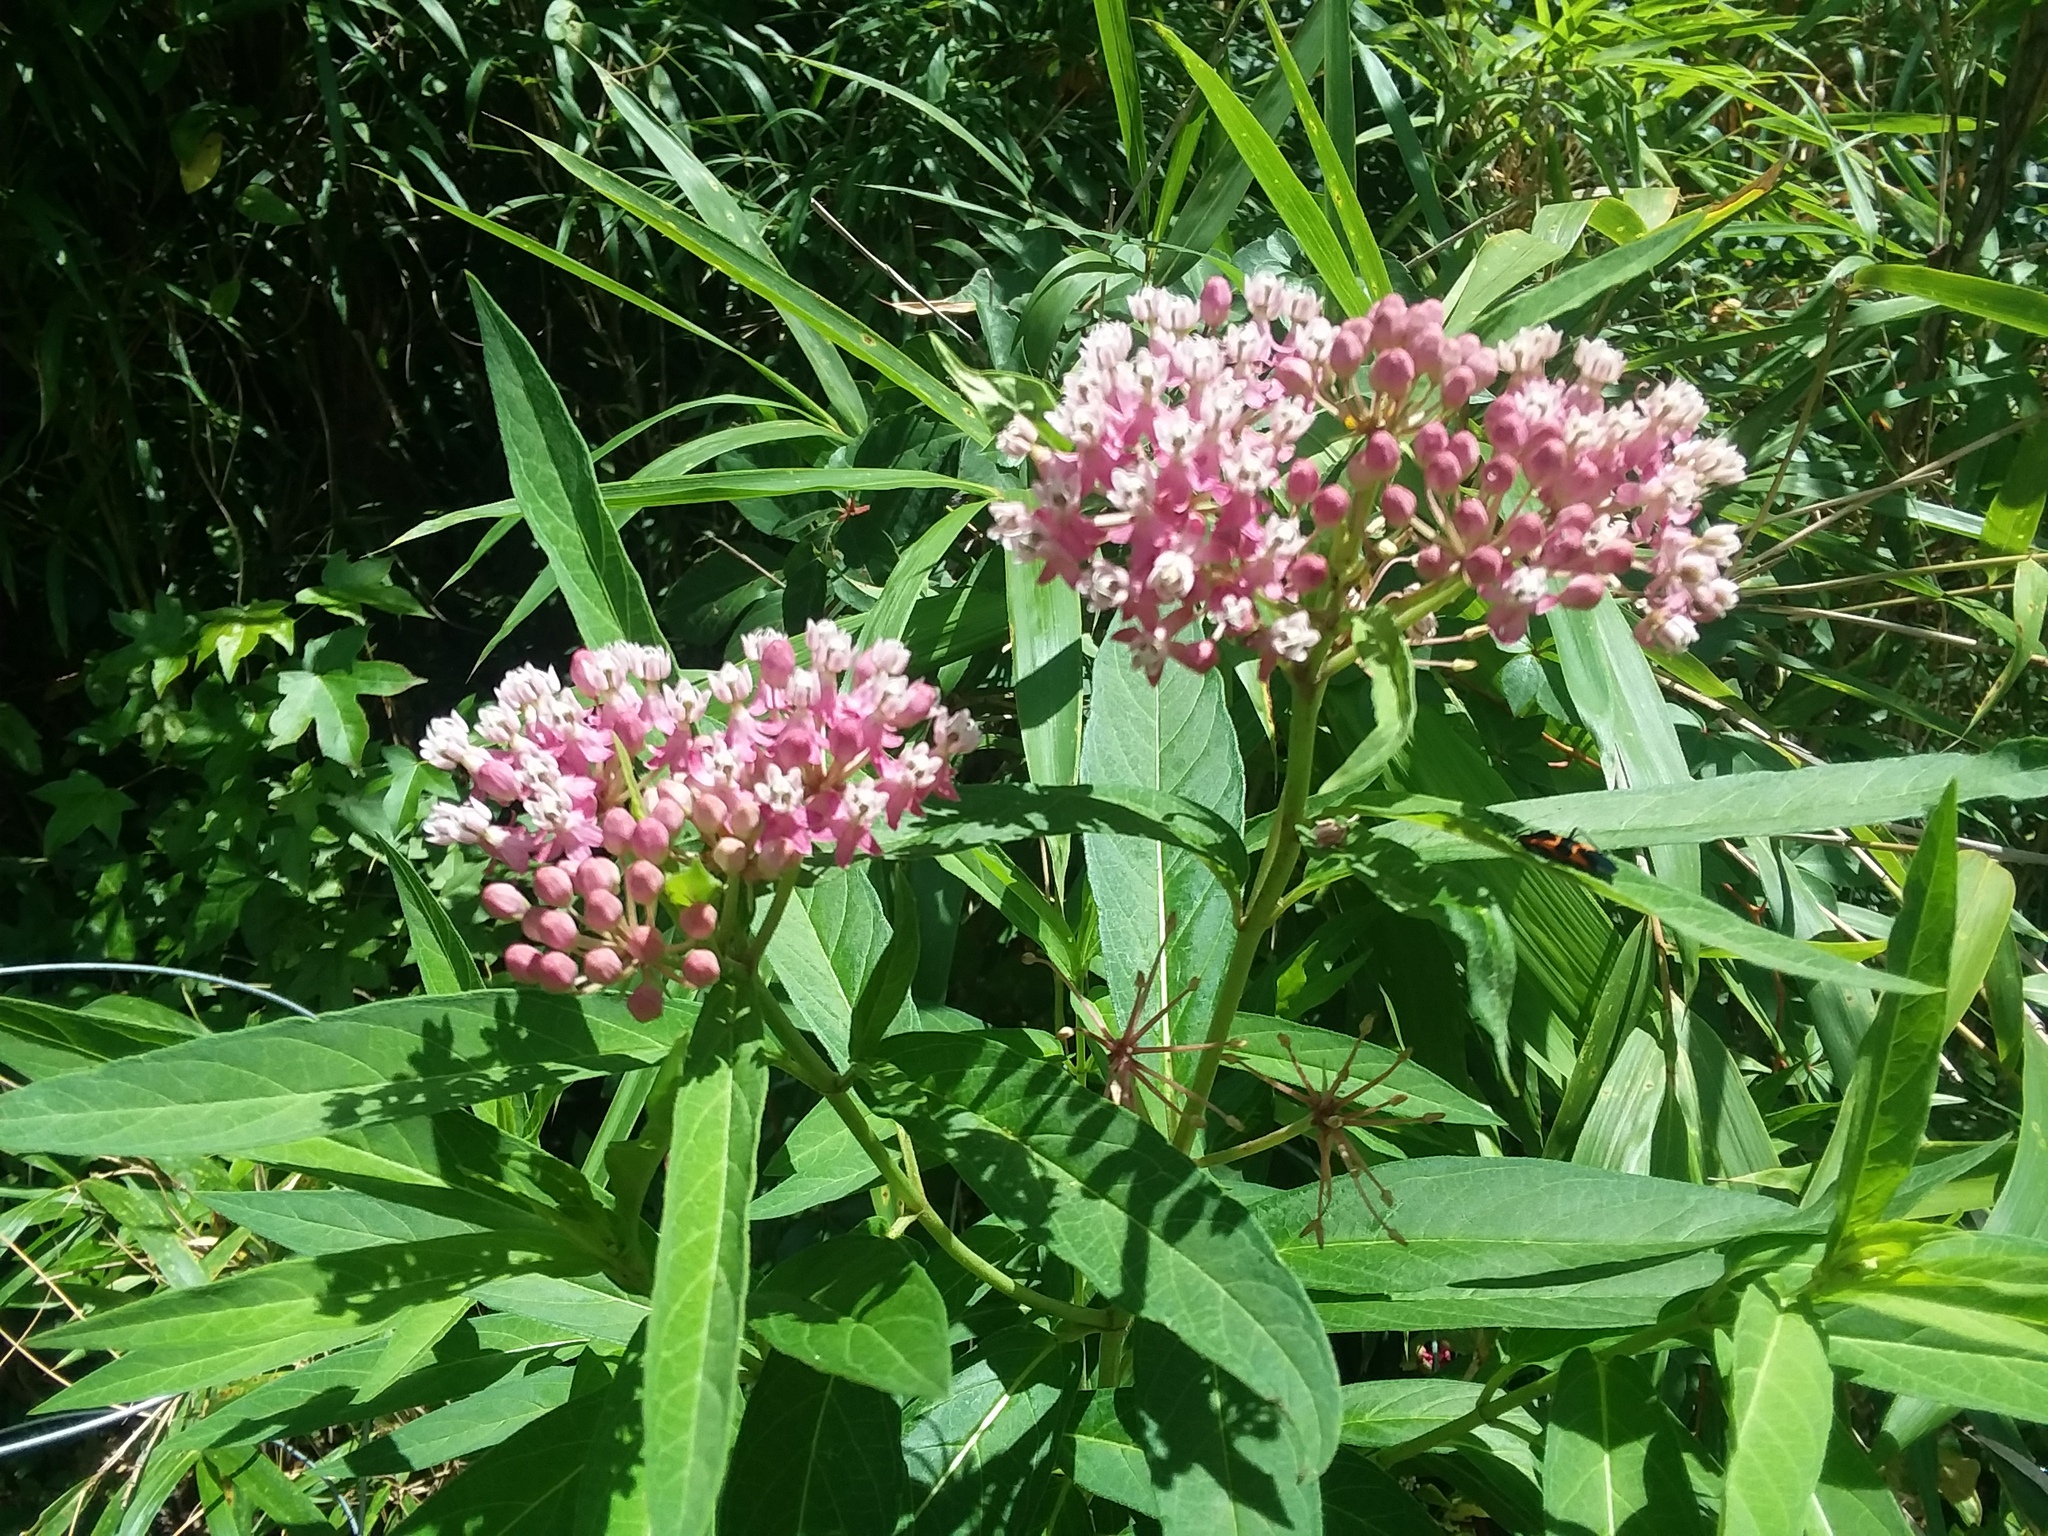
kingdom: Animalia
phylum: Arthropoda
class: Insecta
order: Hemiptera
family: Lygaeidae
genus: Oncopeltus
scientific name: Oncopeltus fasciatus
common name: Large milkweed bug
